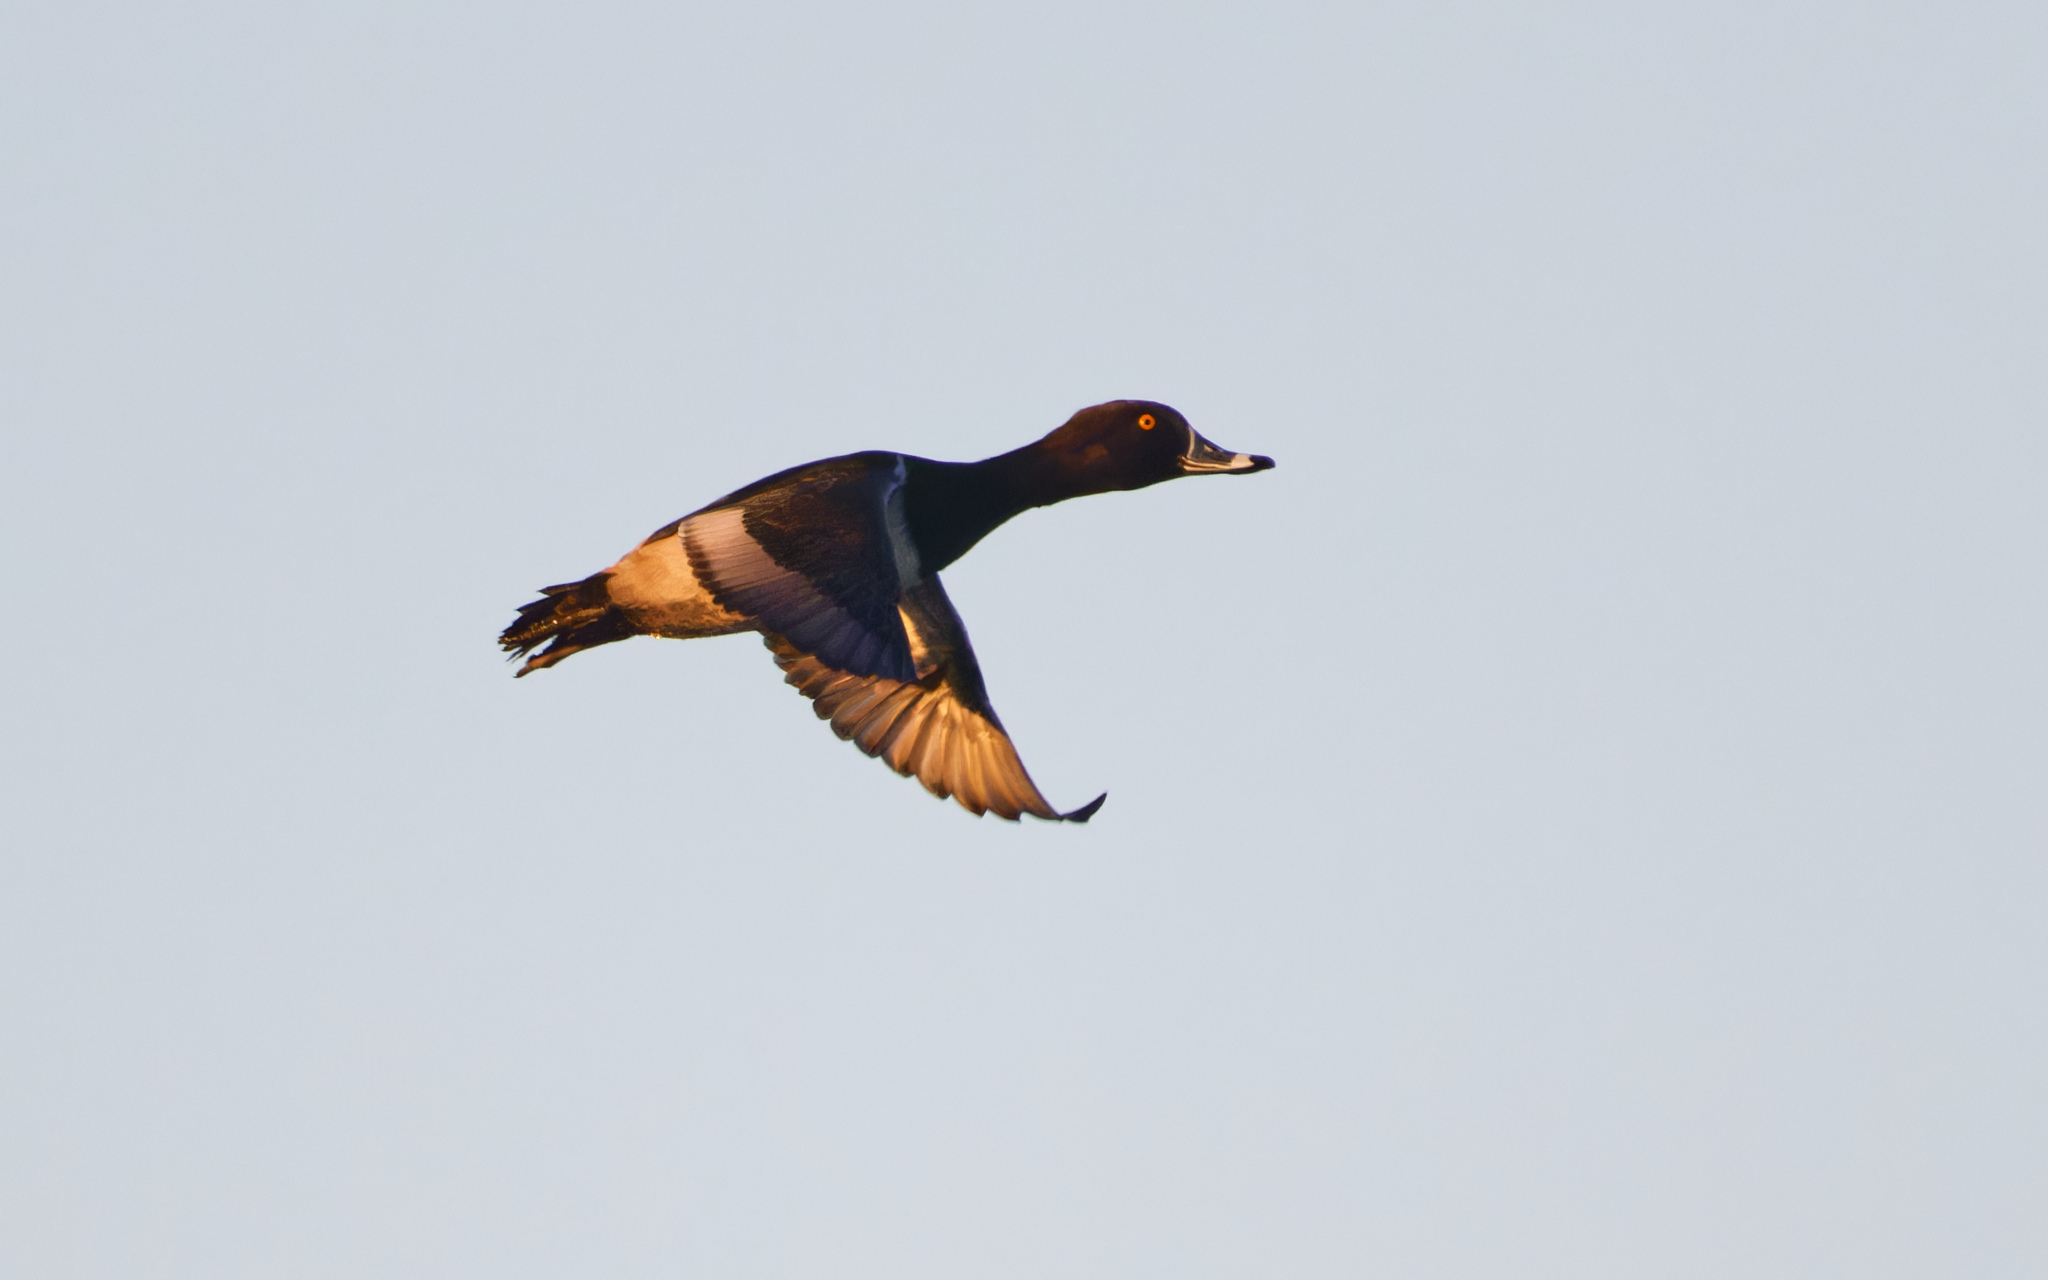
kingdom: Animalia
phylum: Chordata
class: Aves
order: Anseriformes
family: Anatidae
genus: Aythya
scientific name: Aythya collaris
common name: Ring-necked duck
